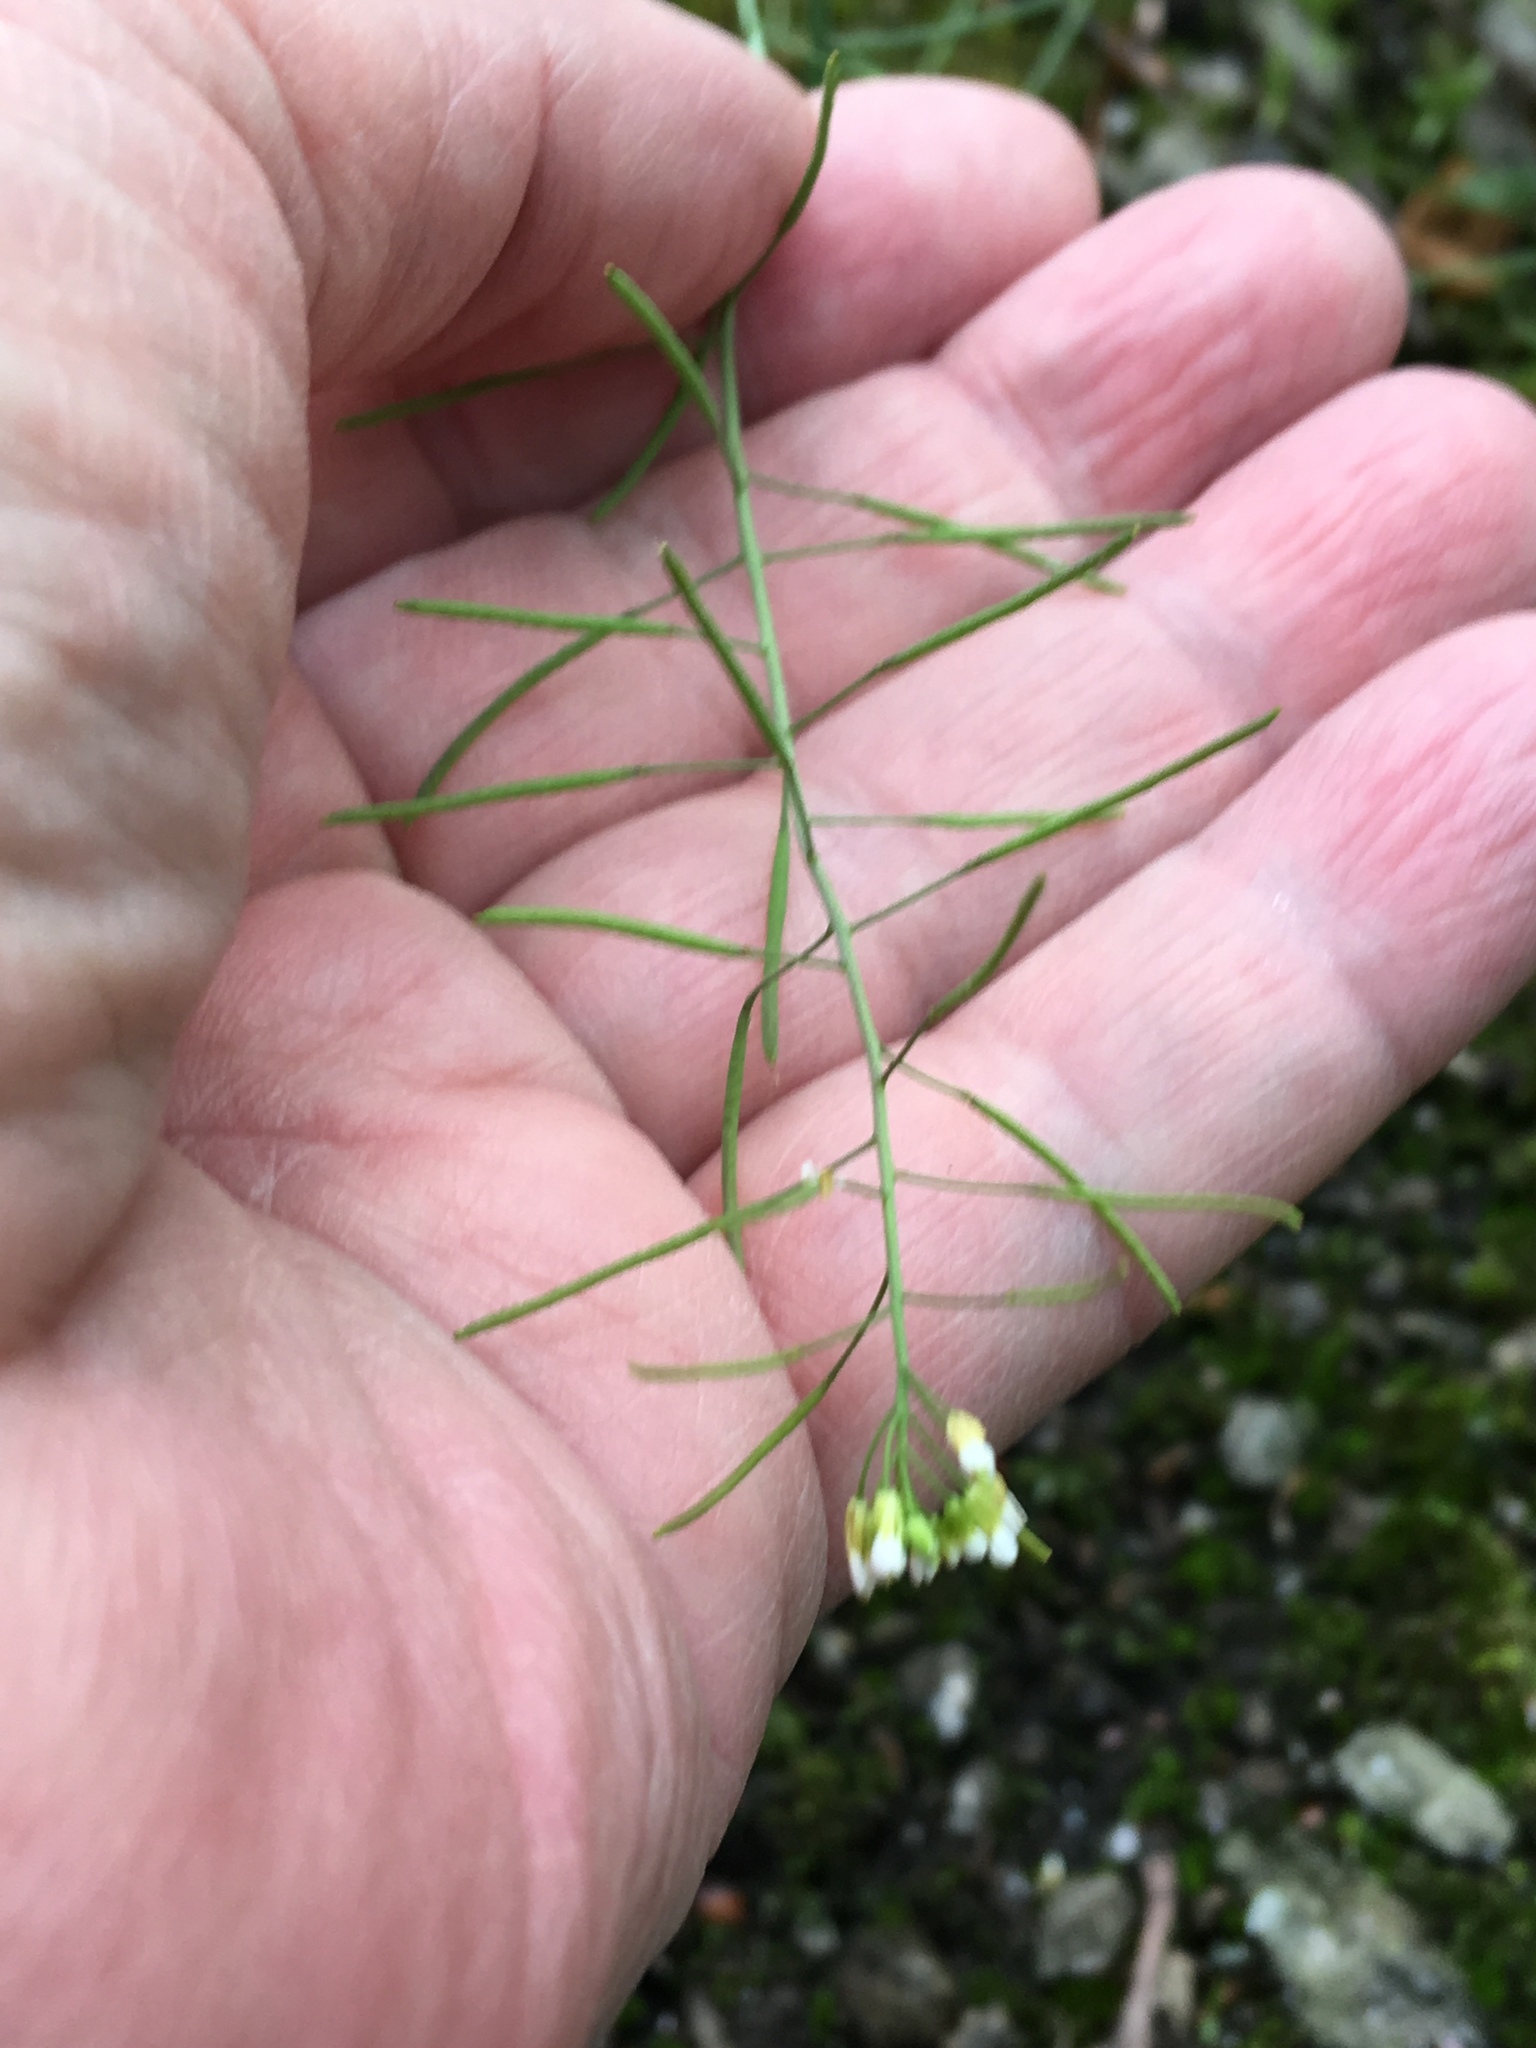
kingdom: Plantae
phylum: Tracheophyta
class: Magnoliopsida
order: Brassicales
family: Brassicaceae
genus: Arabidopsis
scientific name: Arabidopsis thaliana
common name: Thale cress
